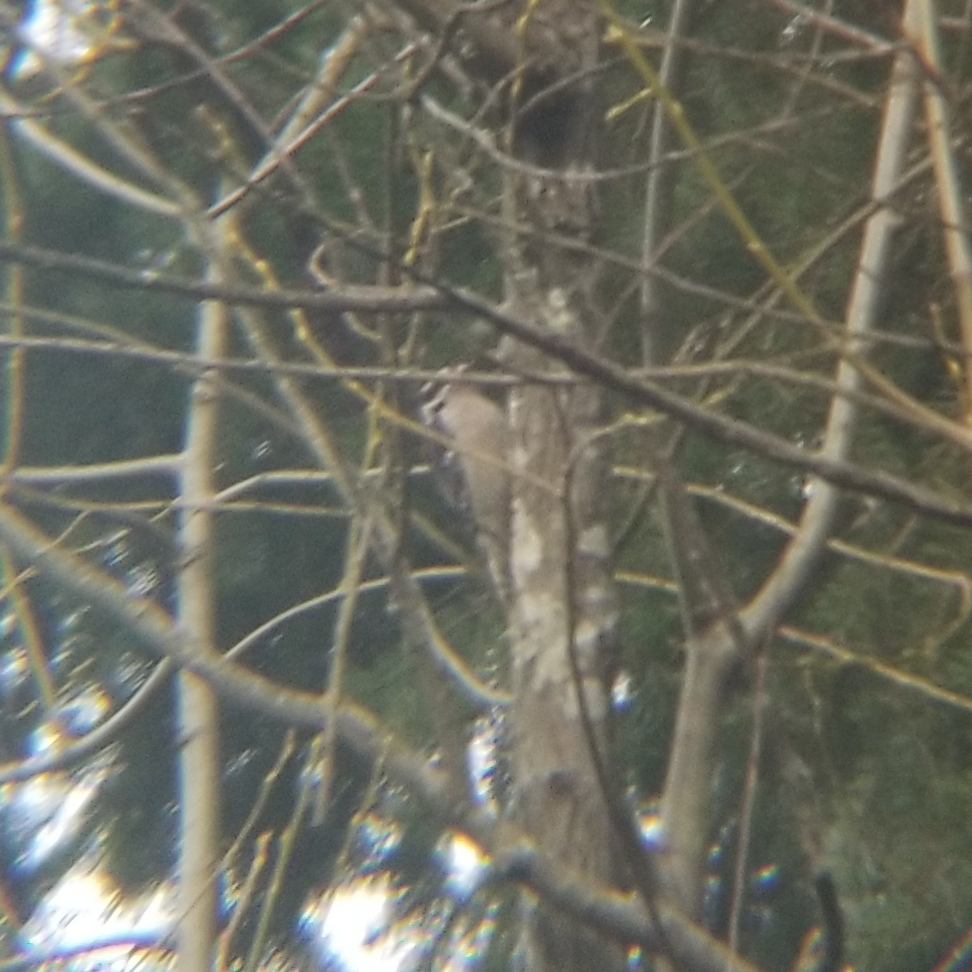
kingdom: Animalia
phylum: Chordata
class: Aves
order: Piciformes
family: Picidae
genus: Dryobates
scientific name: Dryobates pubescens
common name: Downy woodpecker
